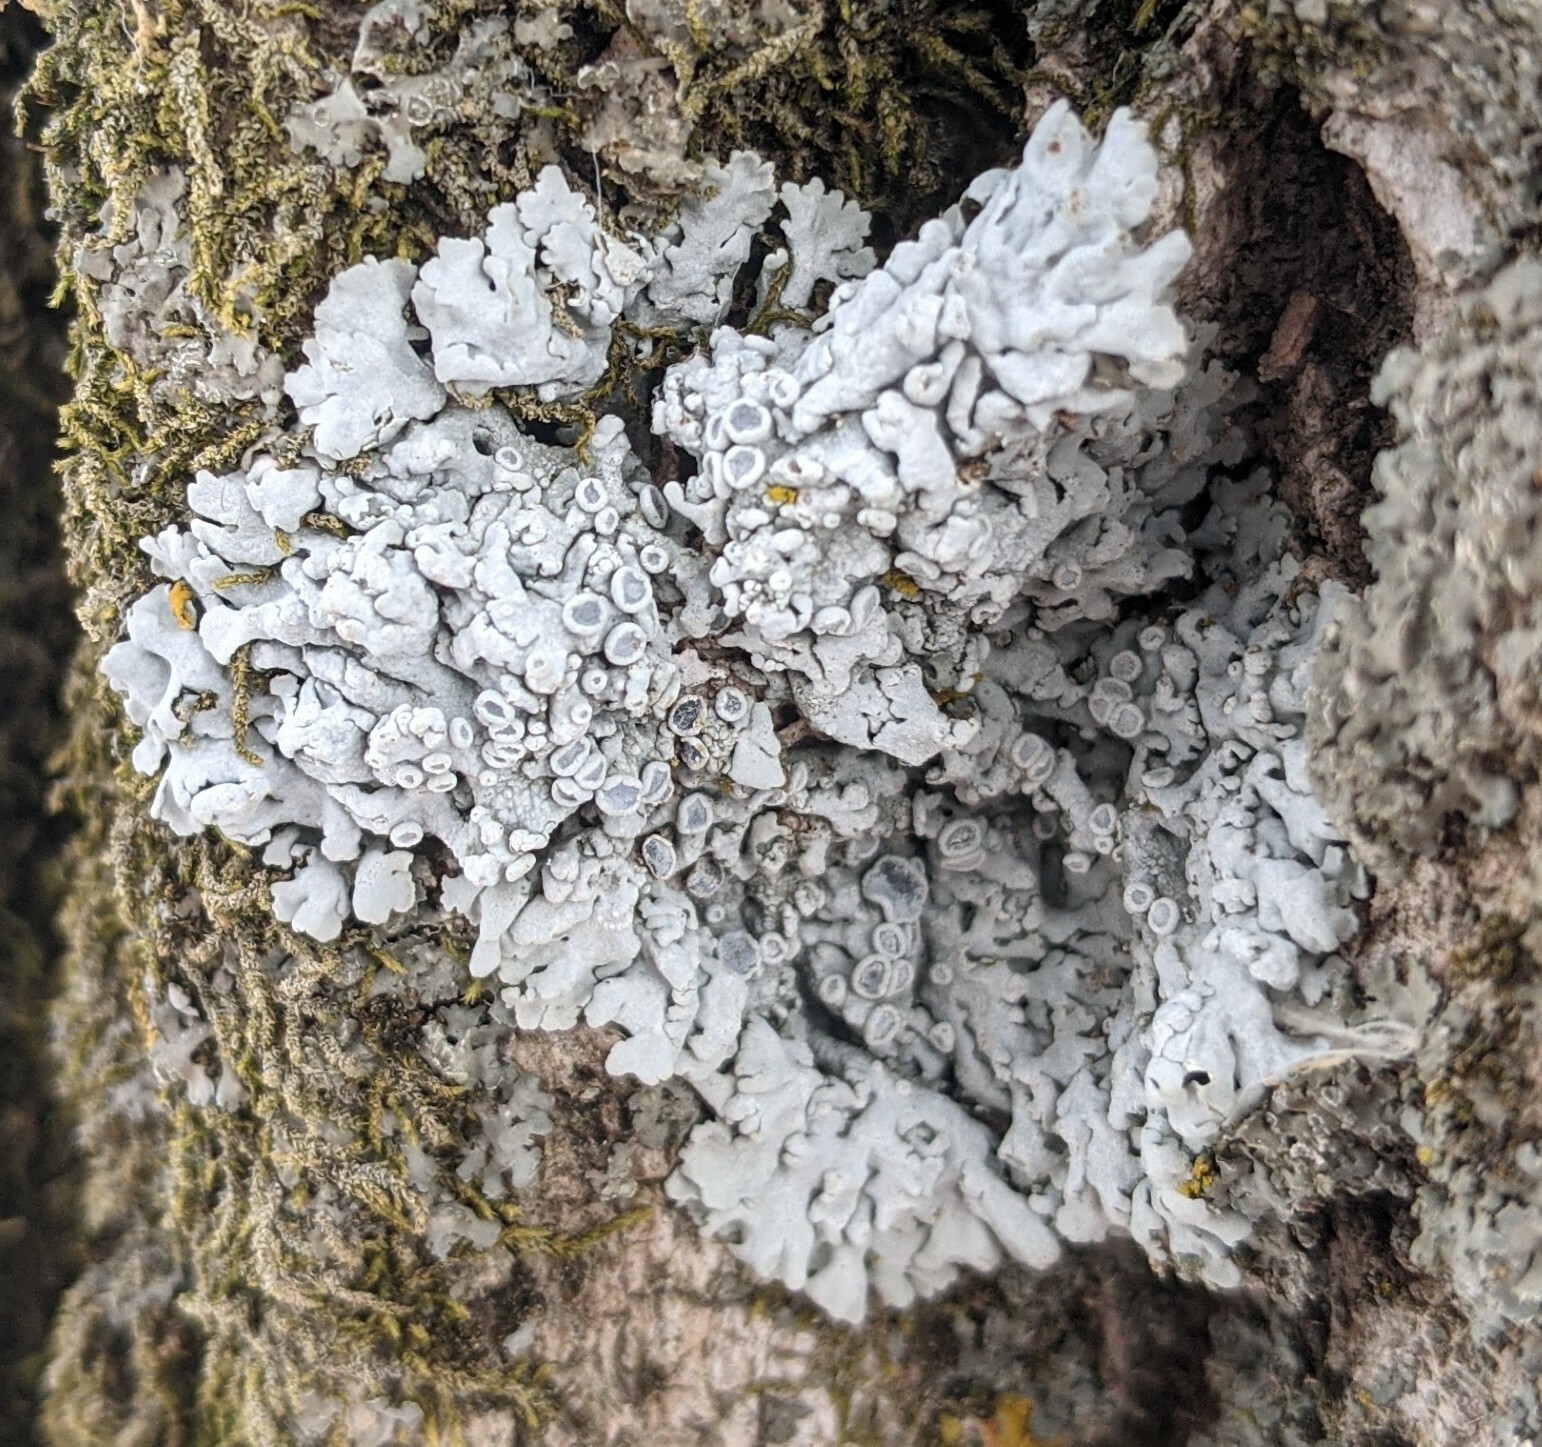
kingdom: Fungi
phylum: Ascomycota
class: Lecanoromycetes
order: Caliciales
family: Physciaceae
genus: Physcia
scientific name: Physcia
